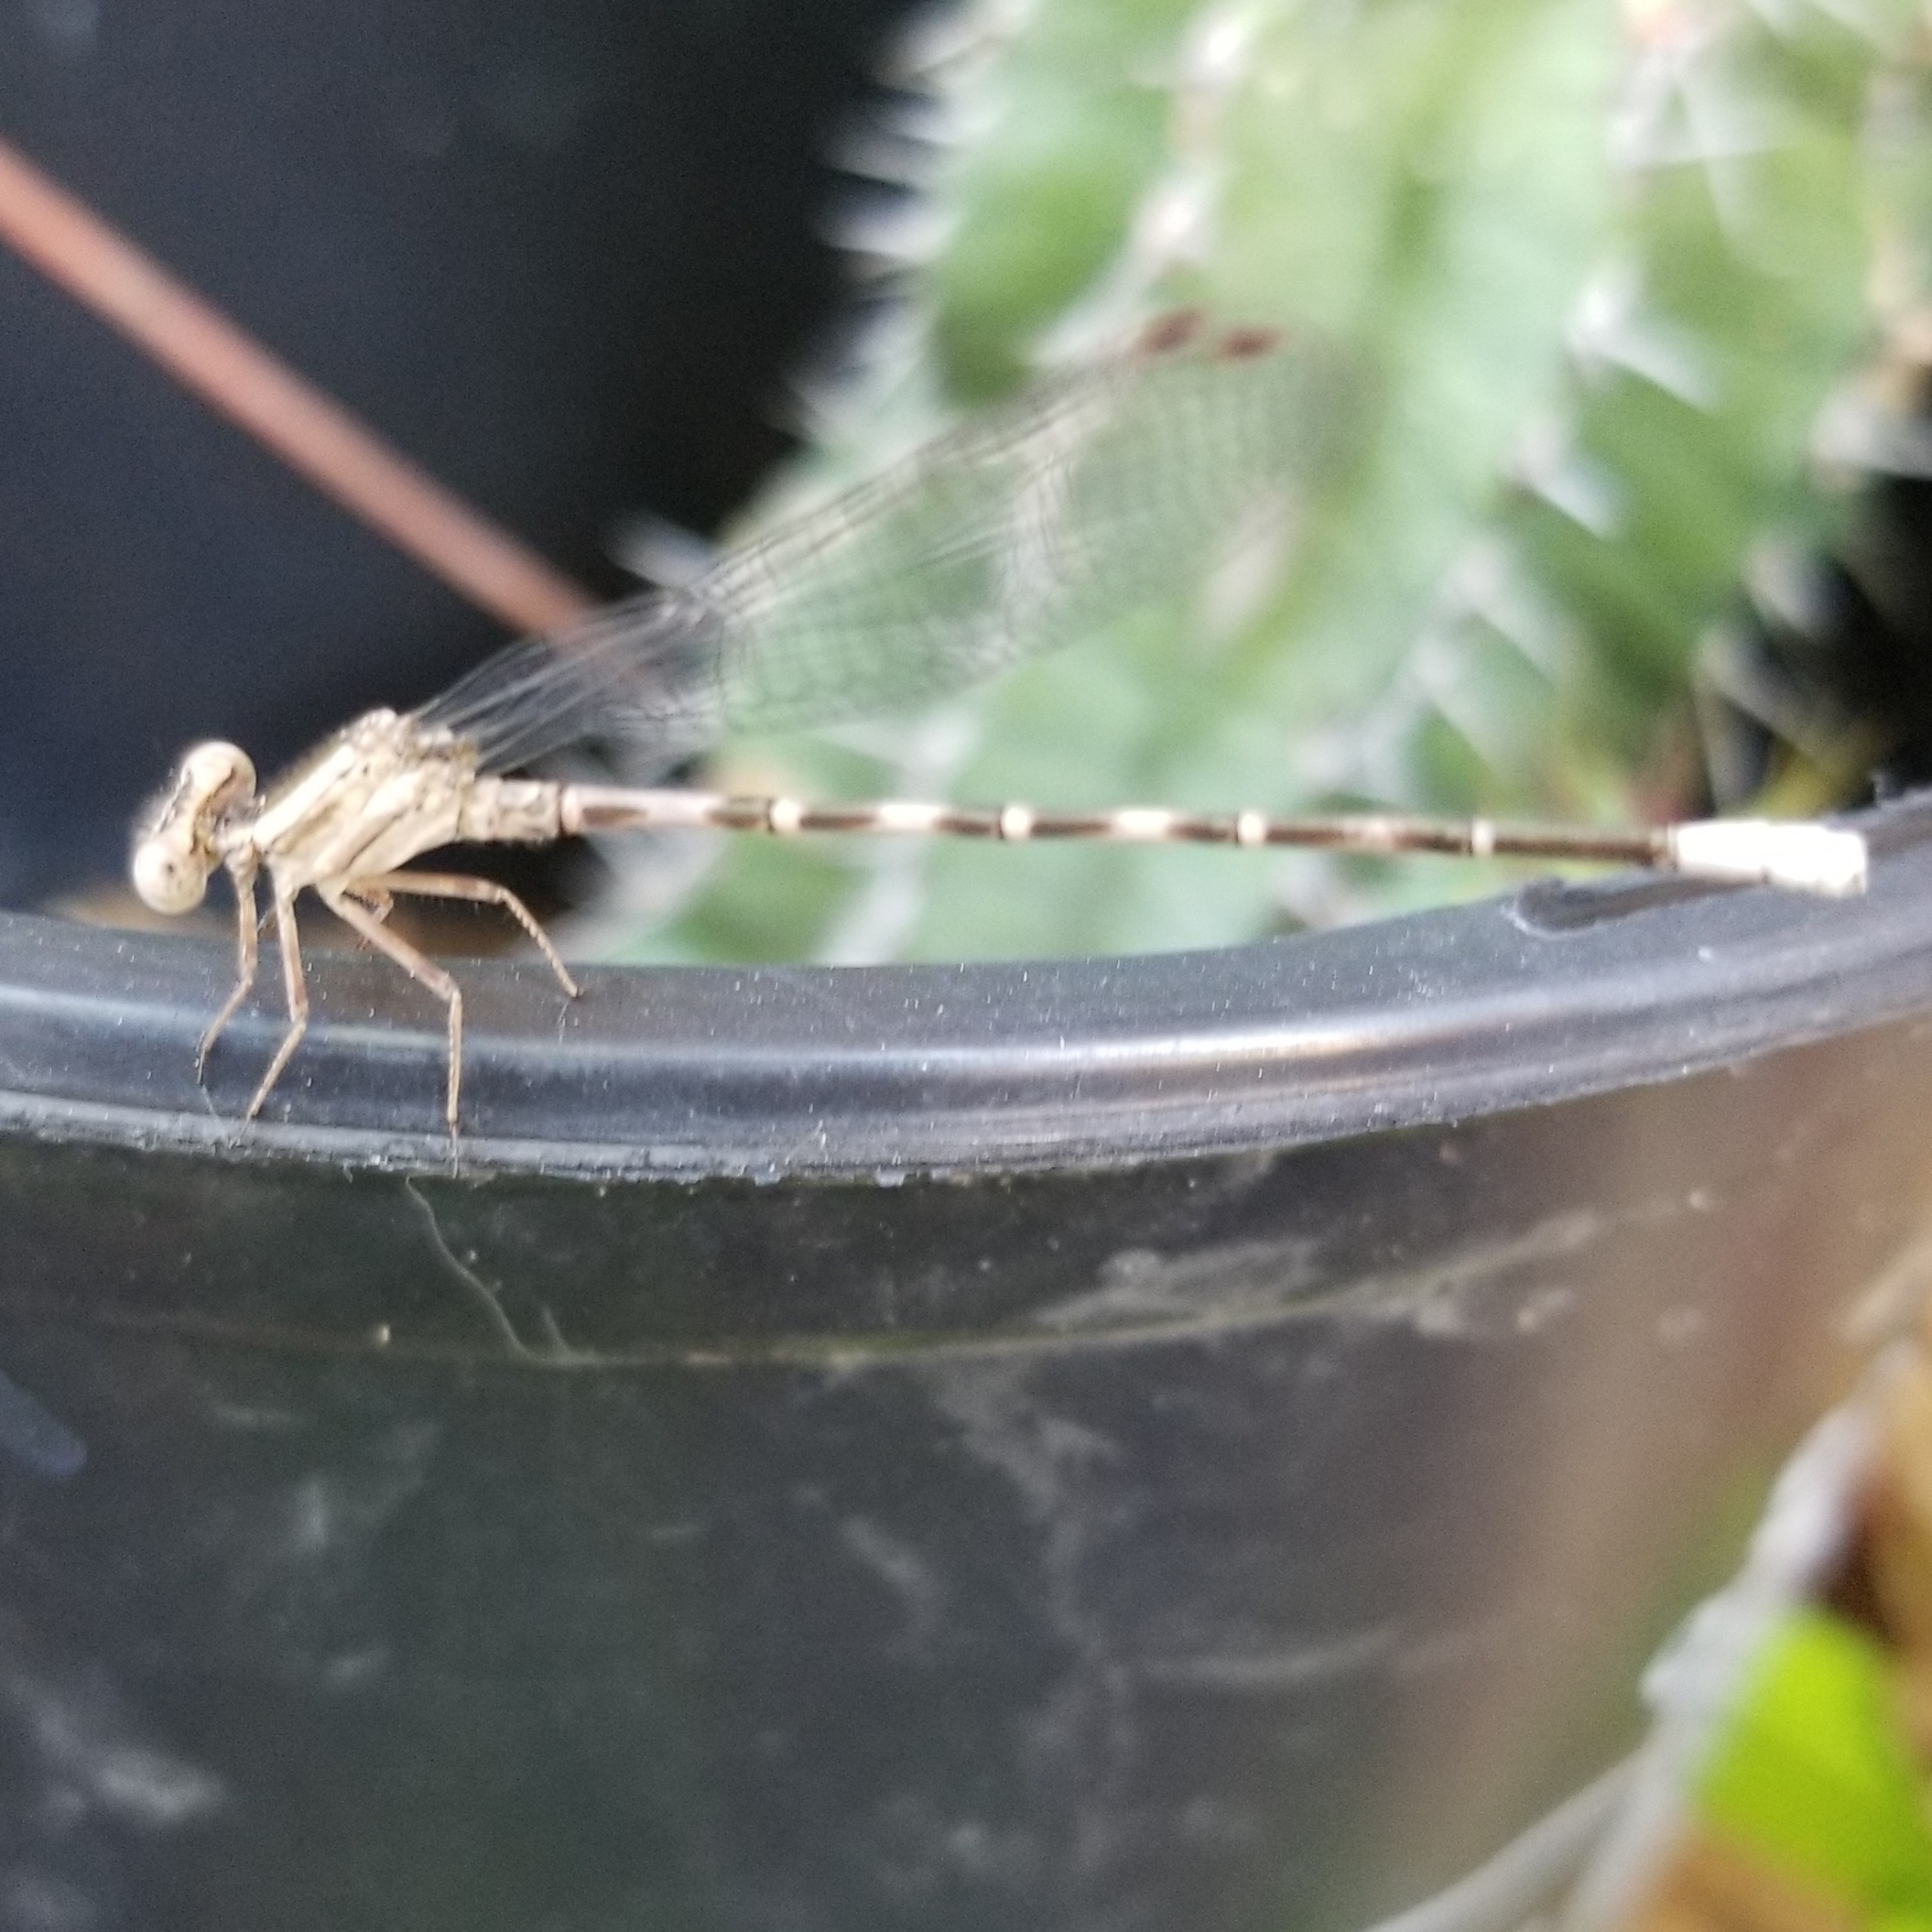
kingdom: Animalia
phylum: Arthropoda
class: Insecta
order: Odonata
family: Coenagrionidae
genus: Argia
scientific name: Argia immunda
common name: Kiowa dancer
